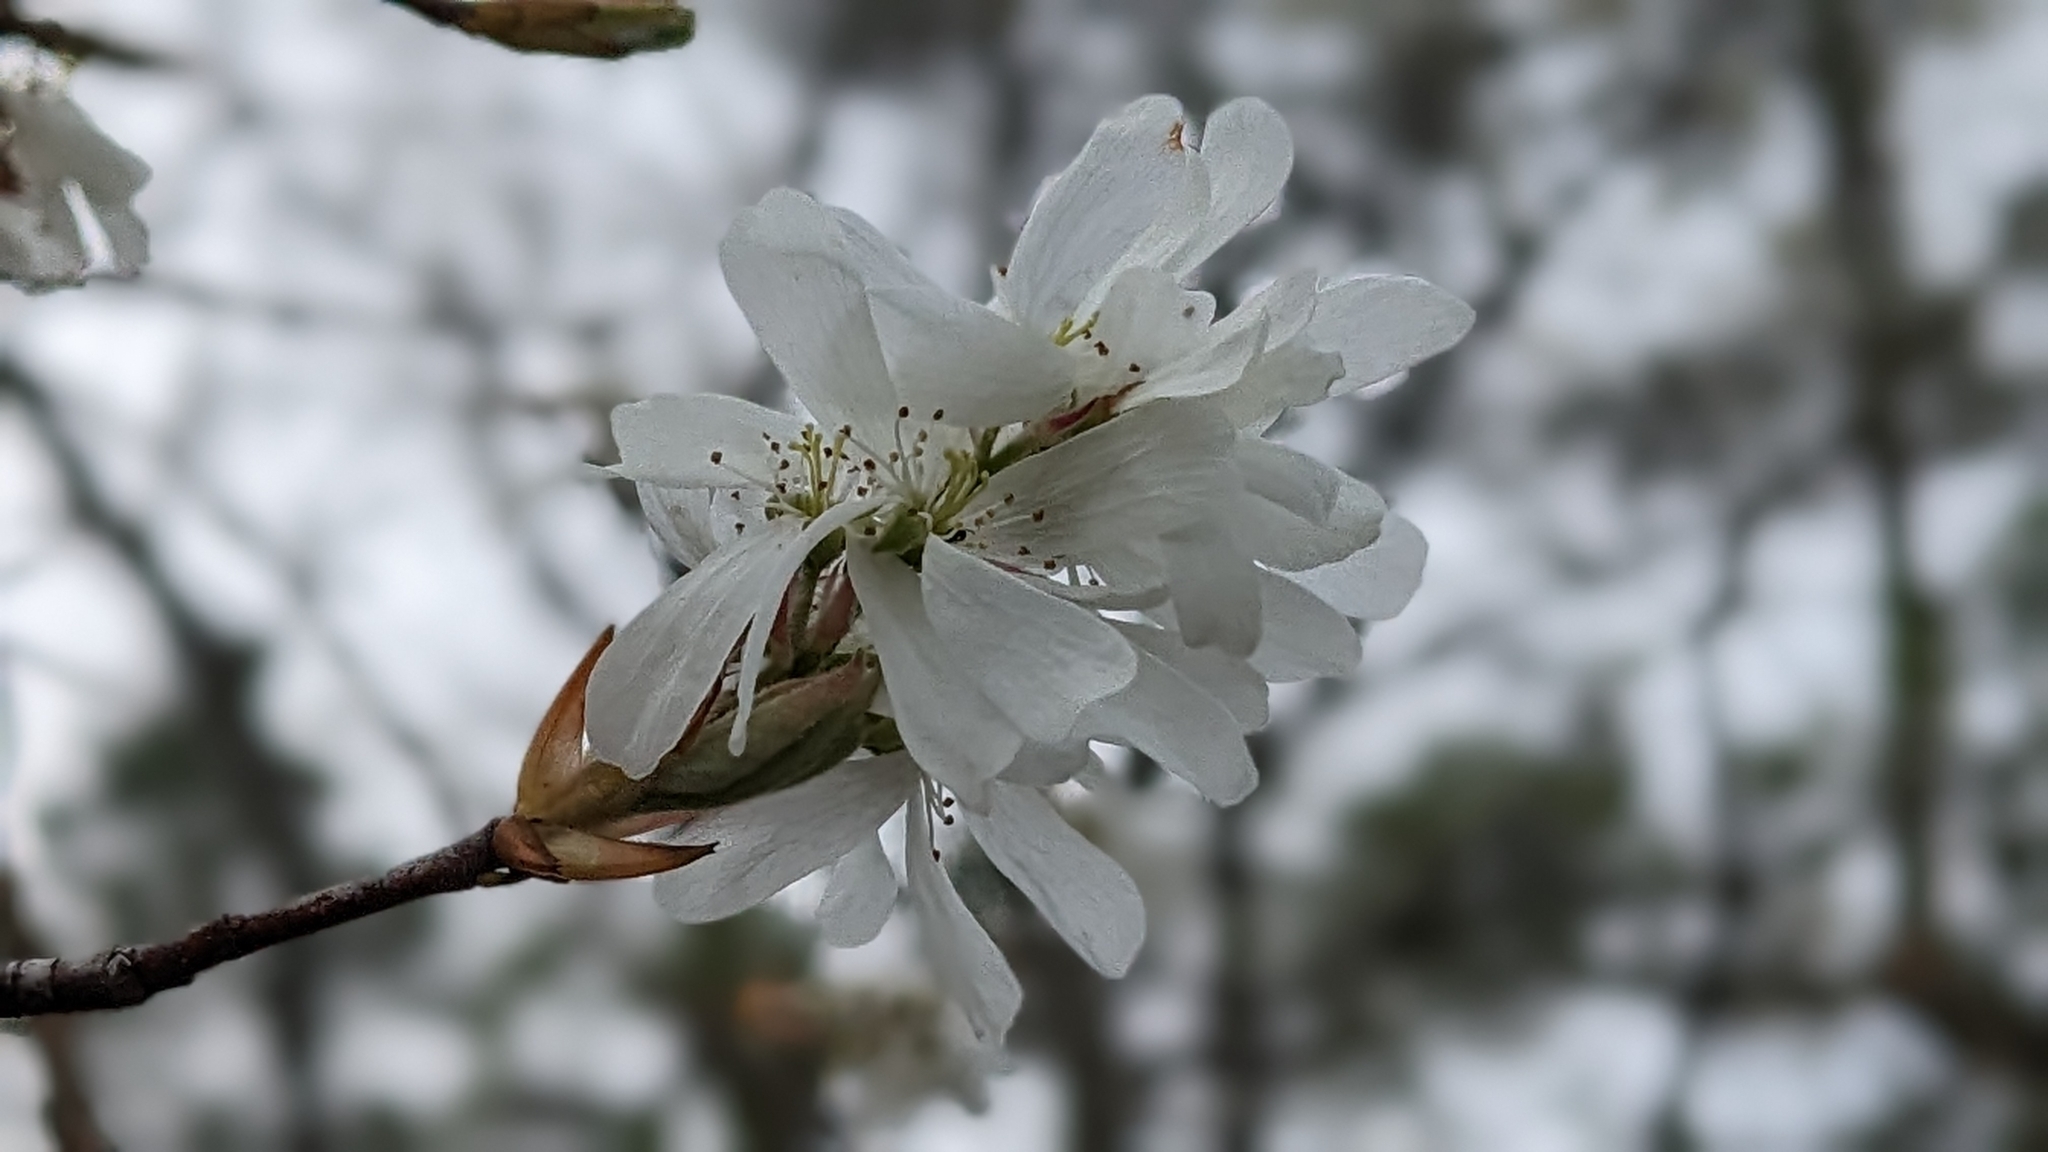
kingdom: Plantae
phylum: Tracheophyta
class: Magnoliopsida
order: Rosales
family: Rosaceae
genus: Amelanchier
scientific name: Amelanchier arborea
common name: Downy serviceberry
